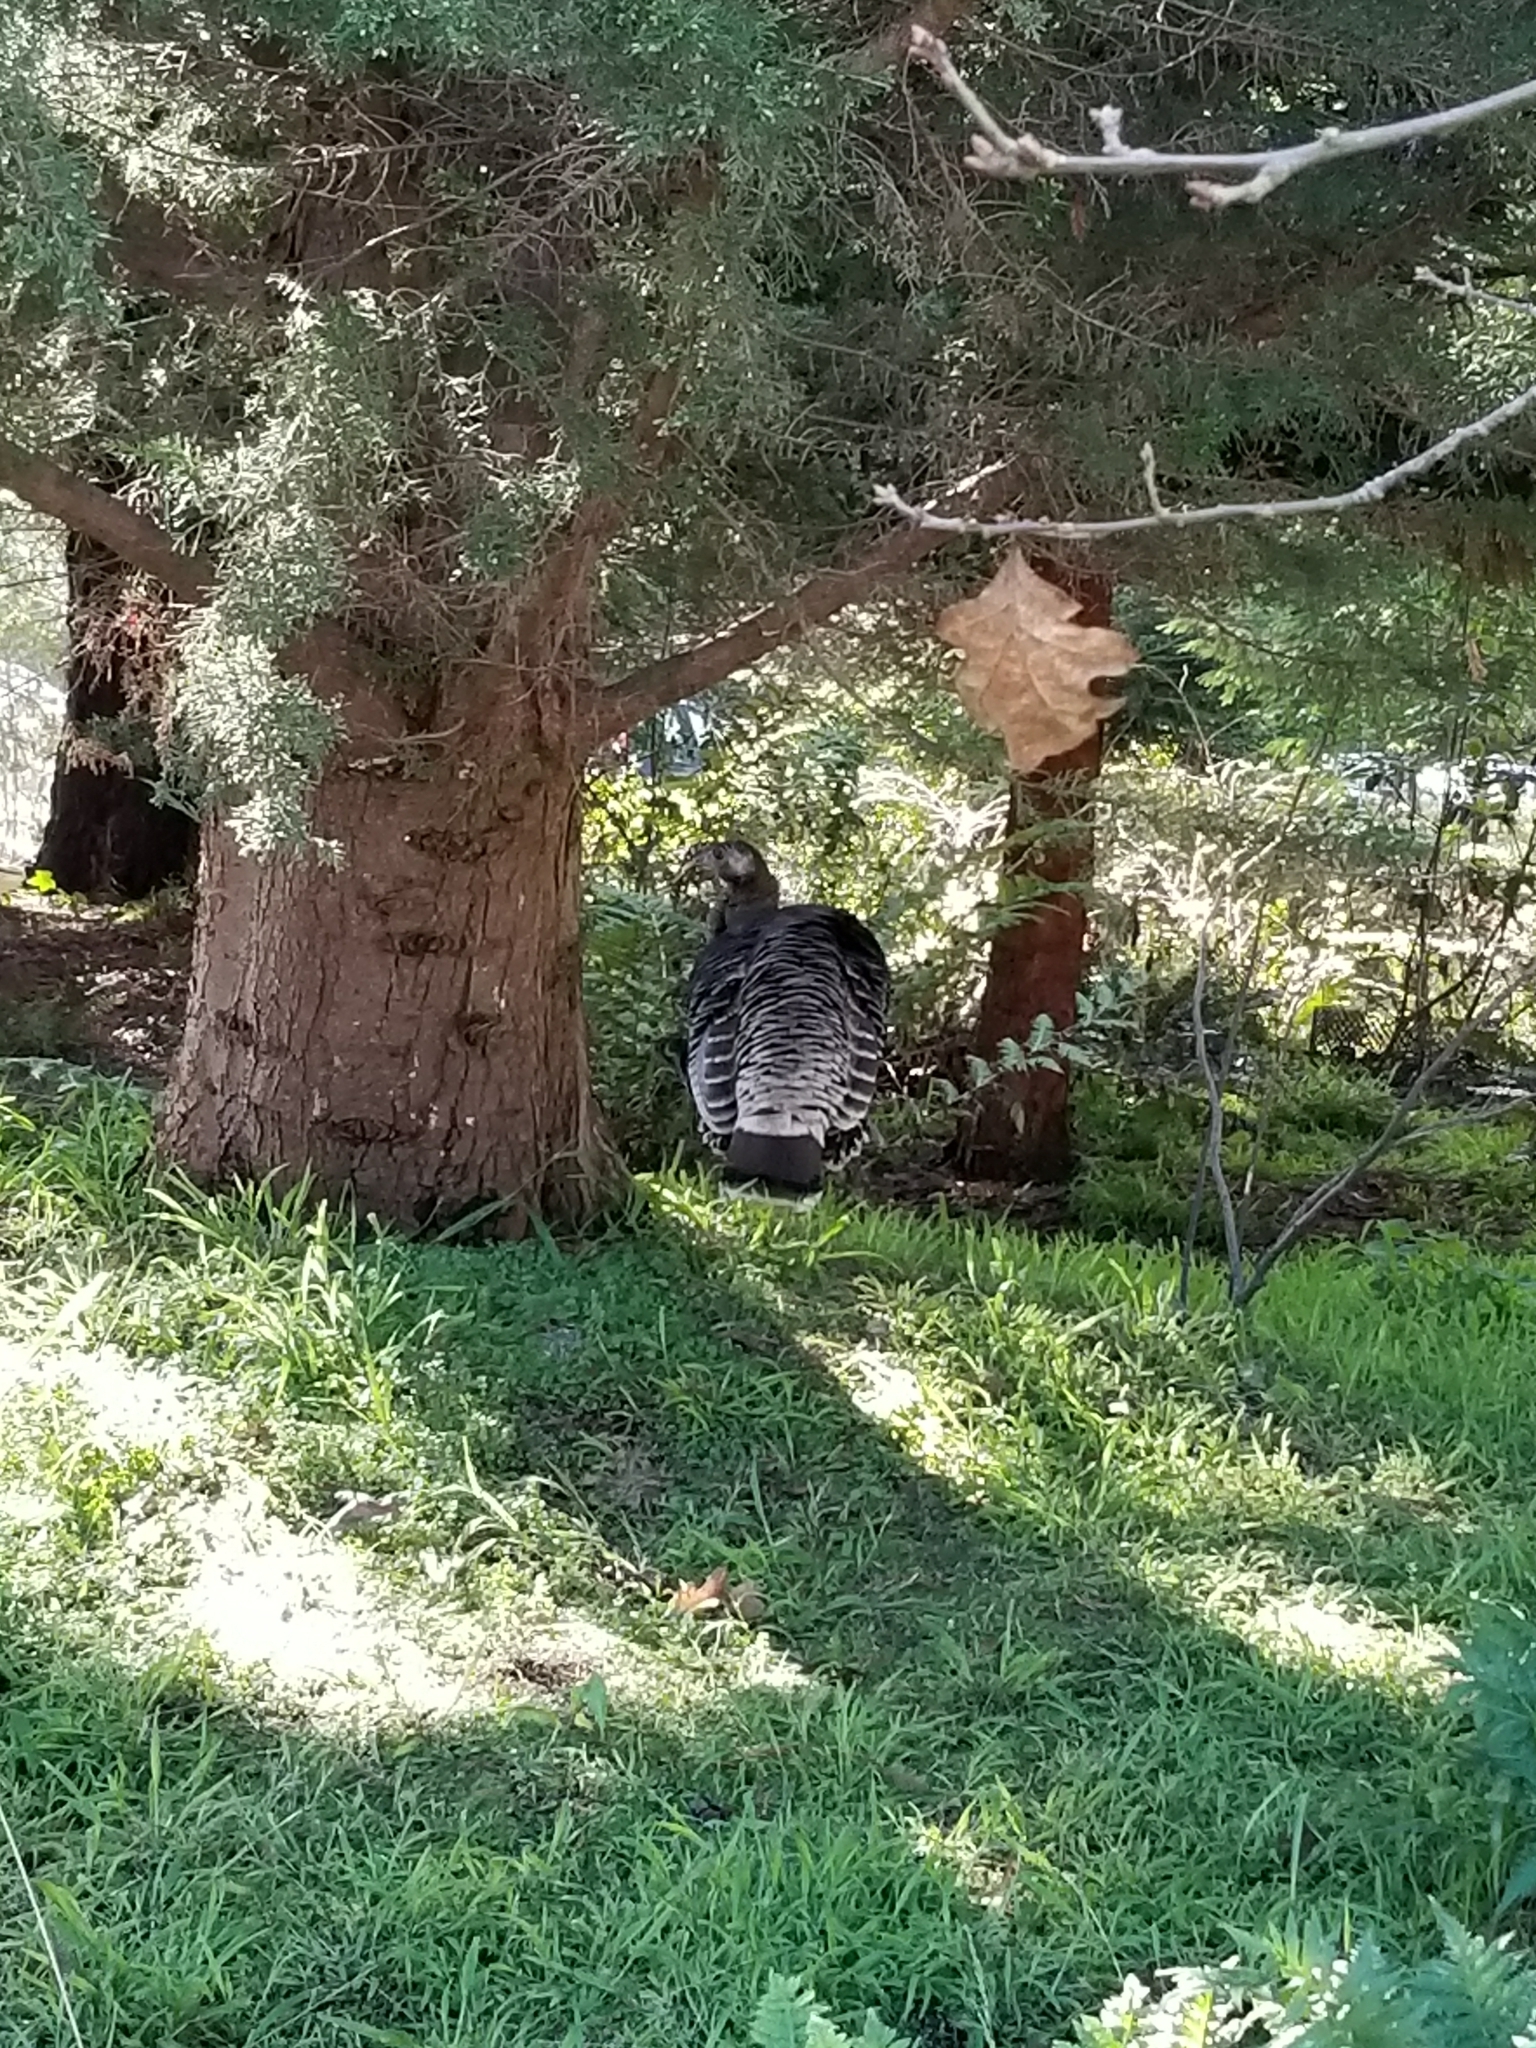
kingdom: Animalia
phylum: Chordata
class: Aves
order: Galliformes
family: Phasianidae
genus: Meleagris
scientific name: Meleagris gallopavo
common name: Wild turkey
